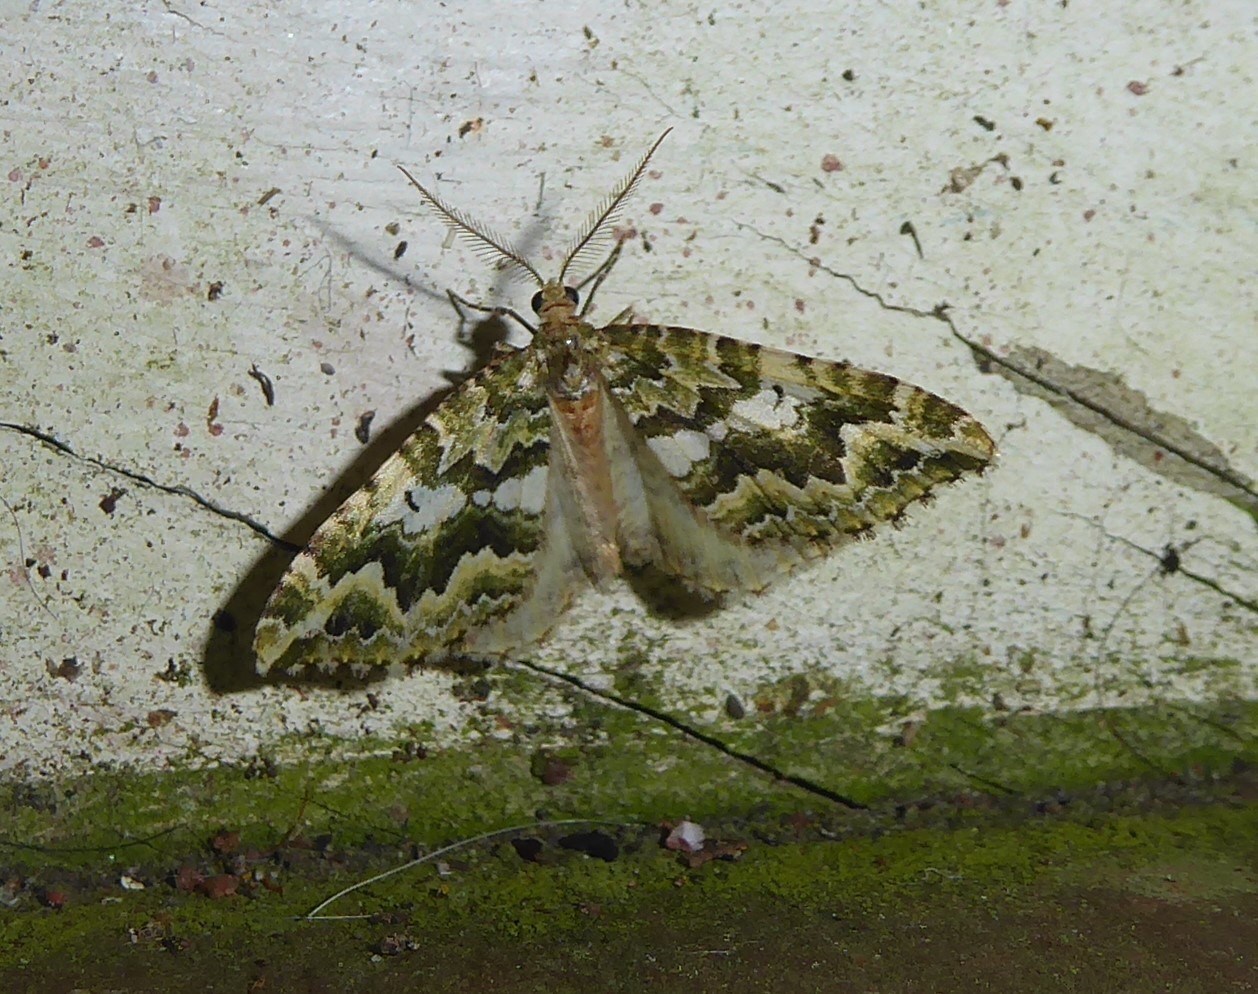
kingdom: Animalia
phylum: Arthropoda
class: Insecta
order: Lepidoptera
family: Geometridae
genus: Asaphodes
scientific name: Asaphodes beata
